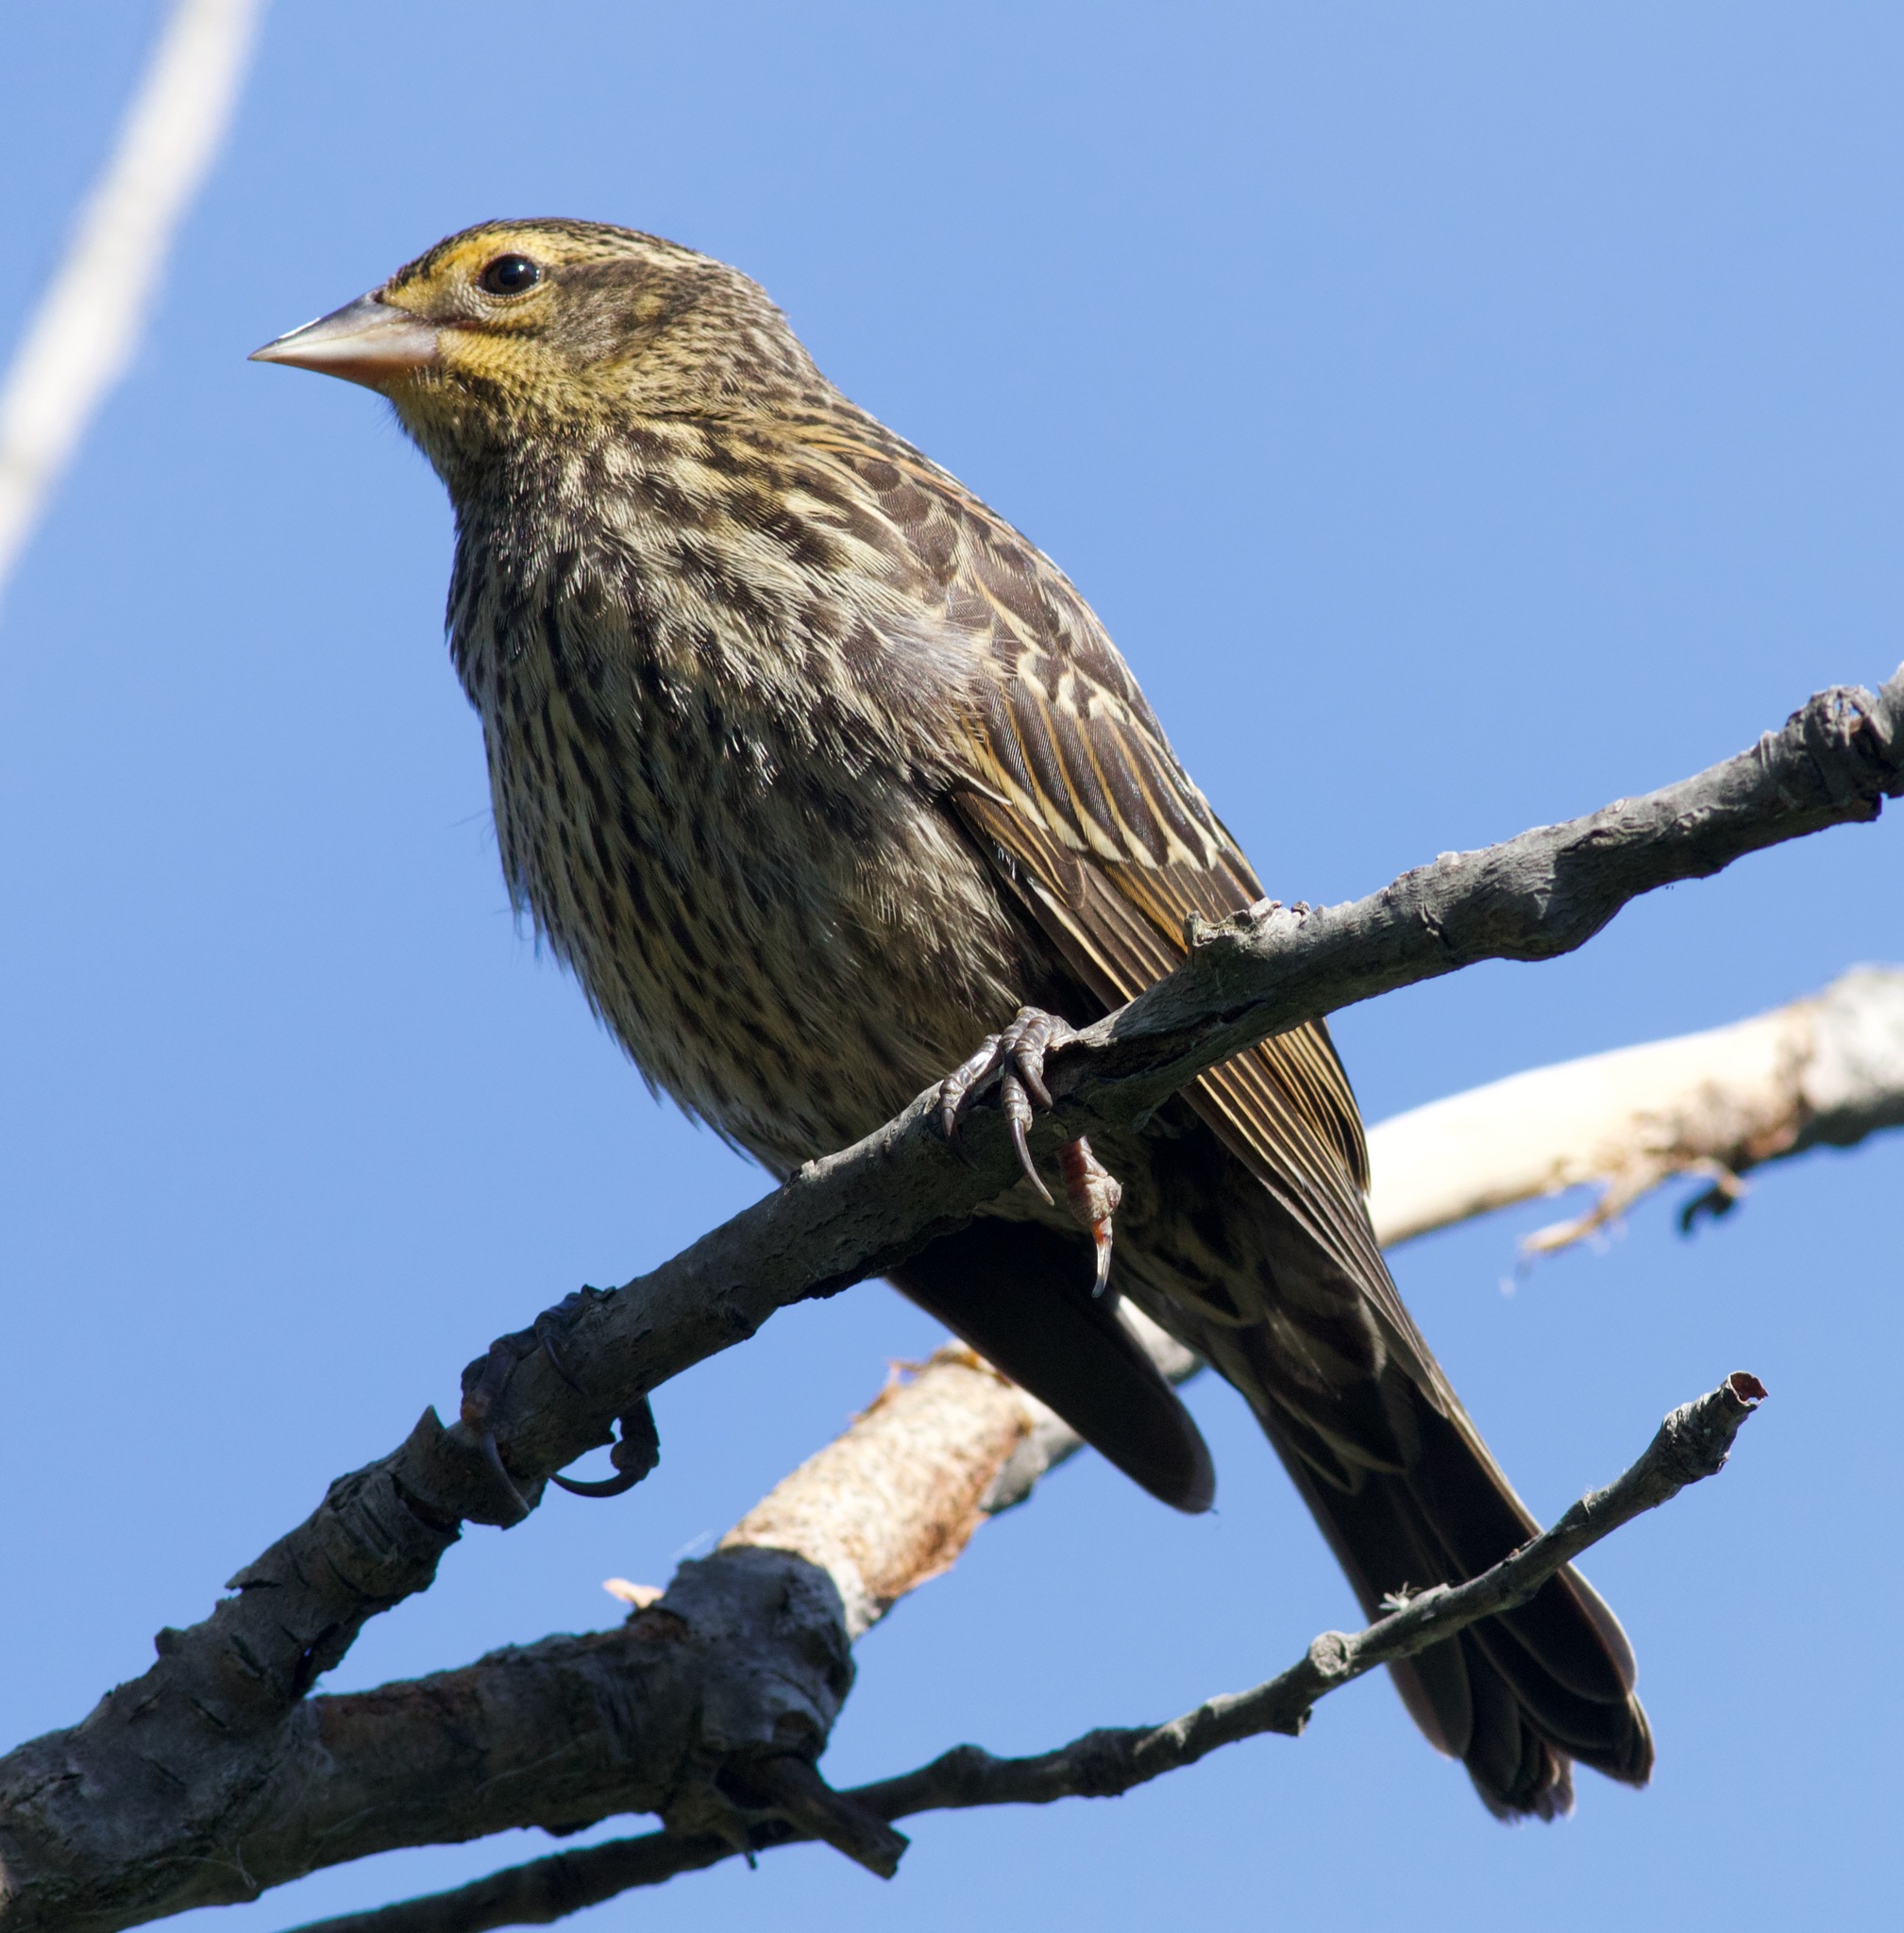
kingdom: Animalia
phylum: Chordata
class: Aves
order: Passeriformes
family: Icteridae
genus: Agelaius
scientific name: Agelaius phoeniceus
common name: Red-winged blackbird
